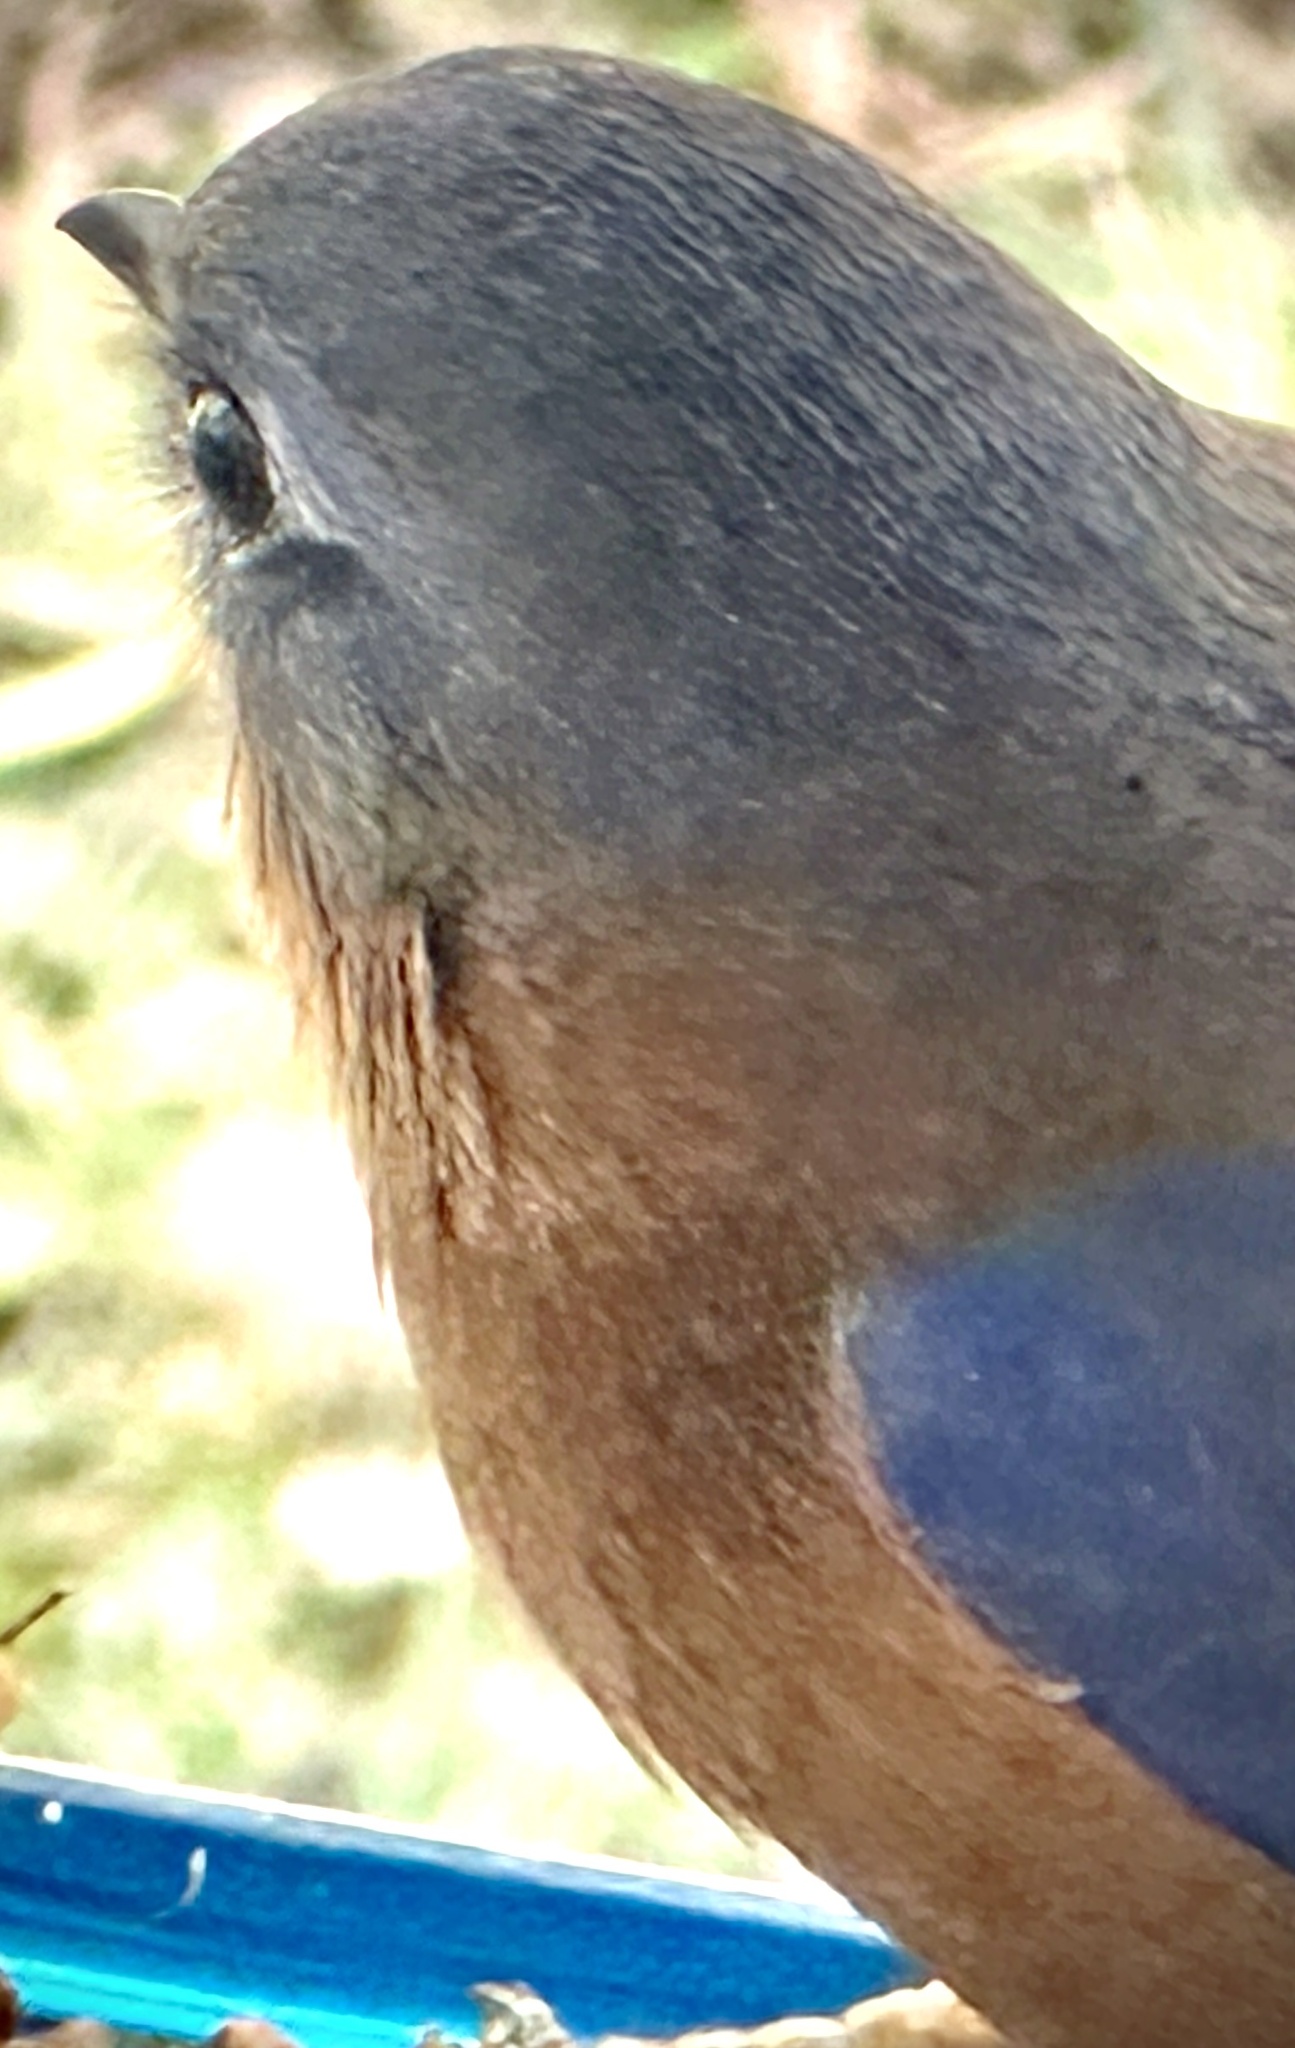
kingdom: Animalia
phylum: Chordata
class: Aves
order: Passeriformes
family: Turdidae
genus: Sialia
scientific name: Sialia sialis
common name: Eastern bluebird
